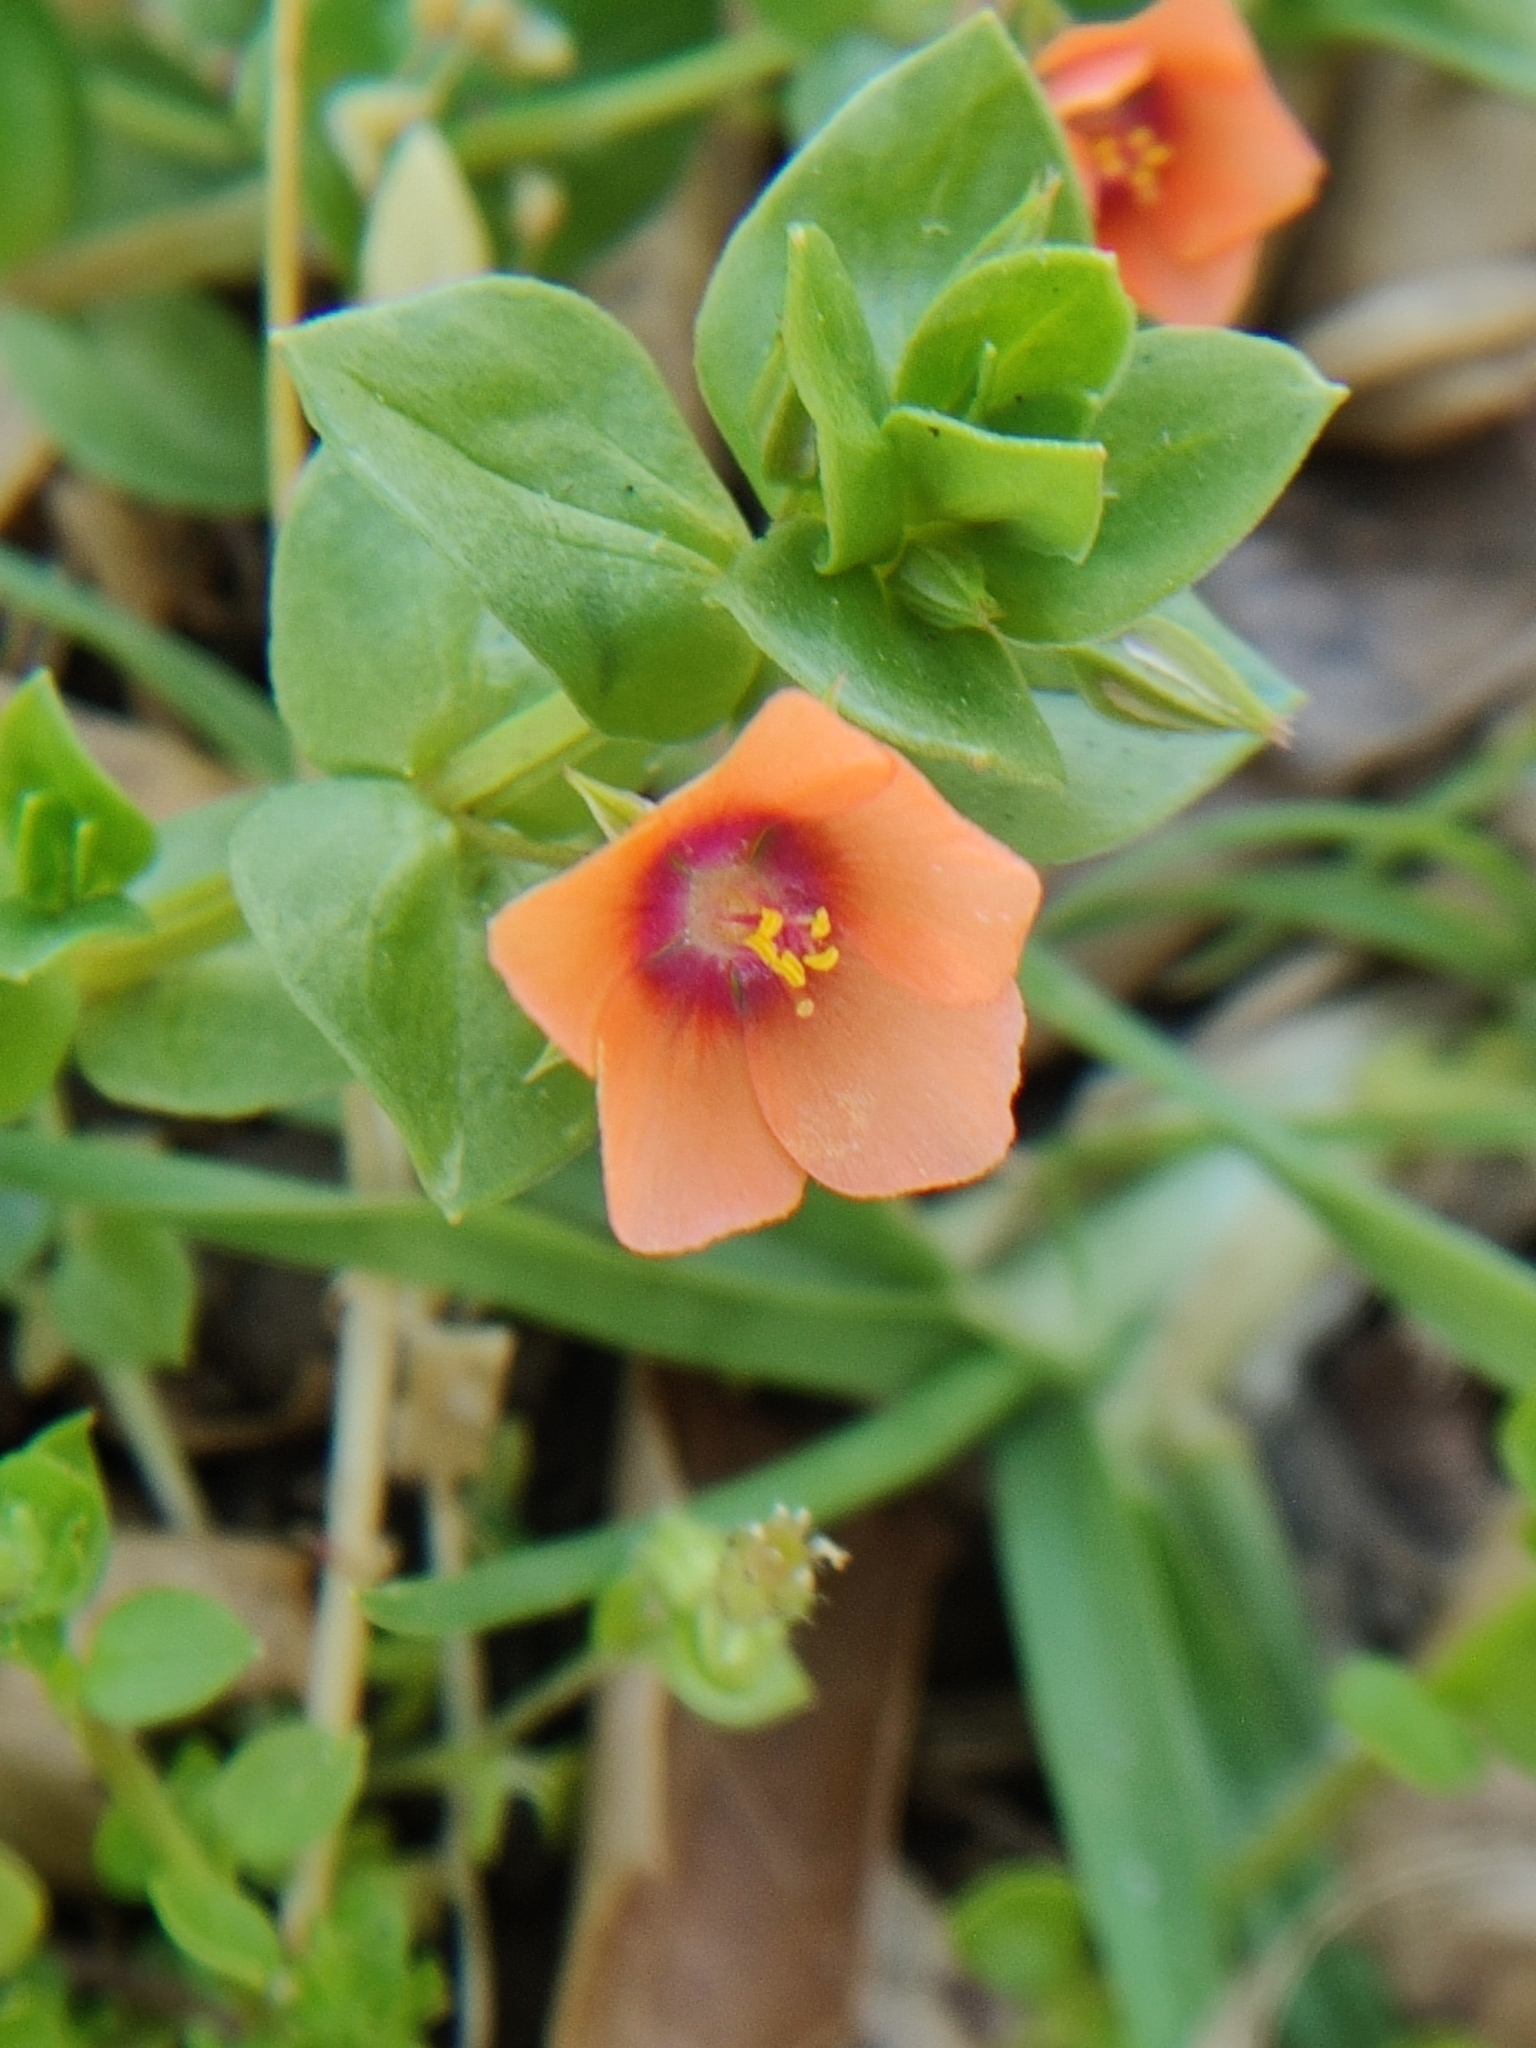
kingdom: Plantae
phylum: Tracheophyta
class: Magnoliopsida
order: Ericales
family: Primulaceae
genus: Lysimachia
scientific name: Lysimachia arvensis
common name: Scarlet pimpernel
